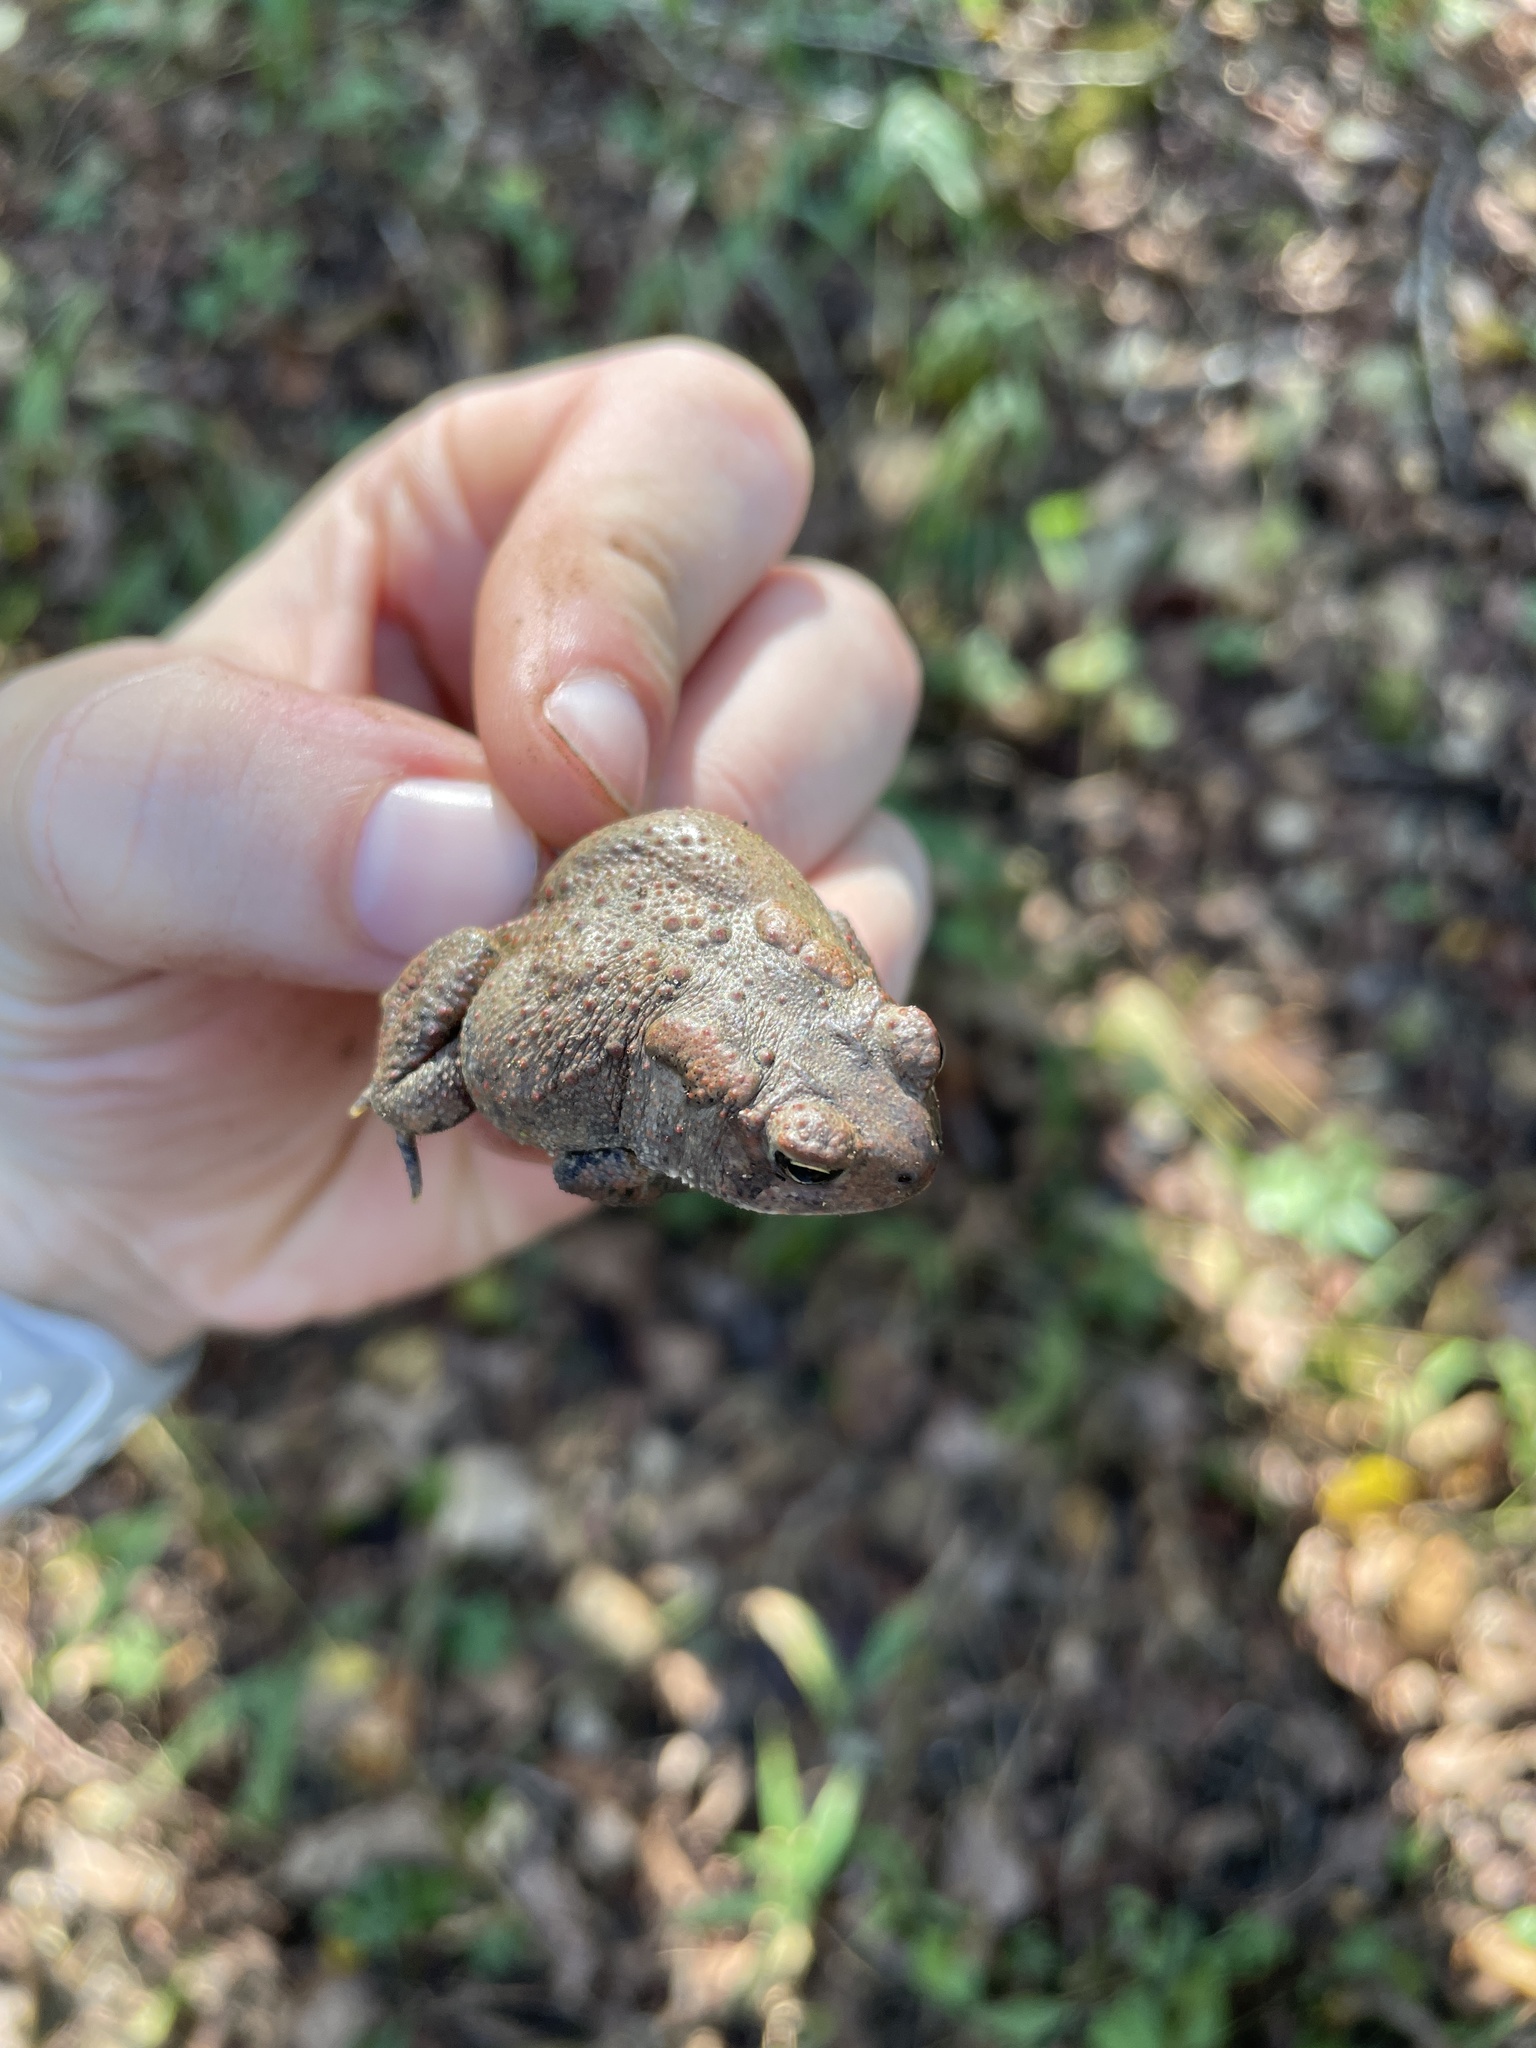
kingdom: Animalia
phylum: Chordata
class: Amphibia
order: Anura
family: Bufonidae
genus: Anaxyrus
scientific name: Anaxyrus americanus
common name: American toad
